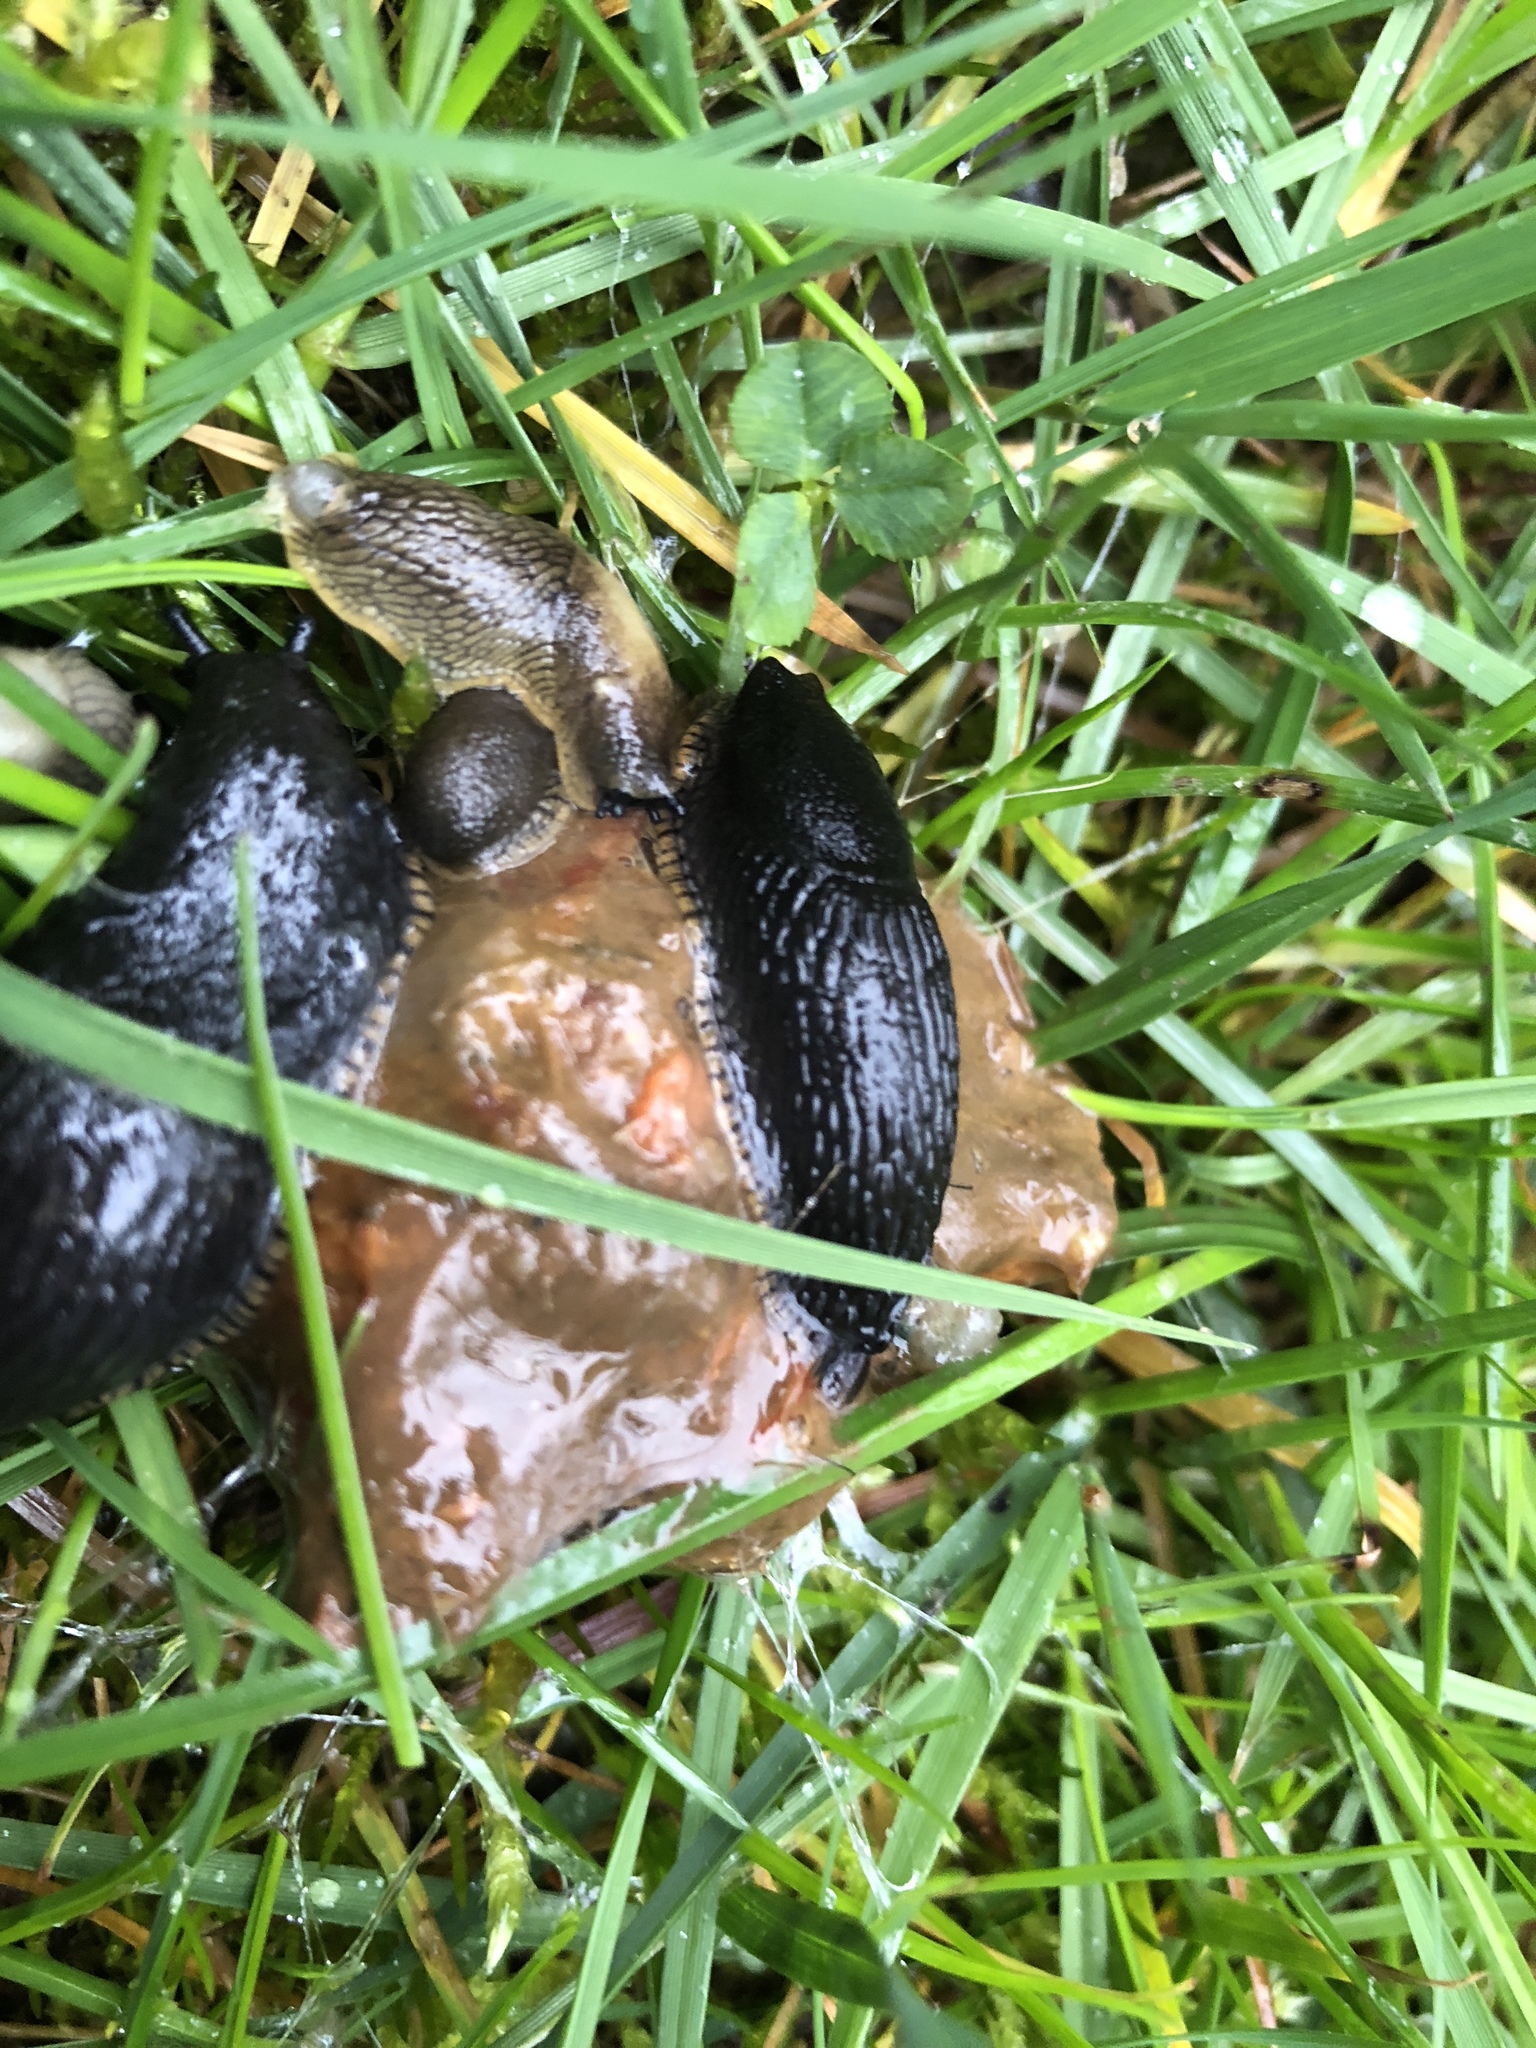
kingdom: Animalia
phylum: Mollusca
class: Gastropoda
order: Stylommatophora
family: Arionidae
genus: Arion
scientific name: Arion
